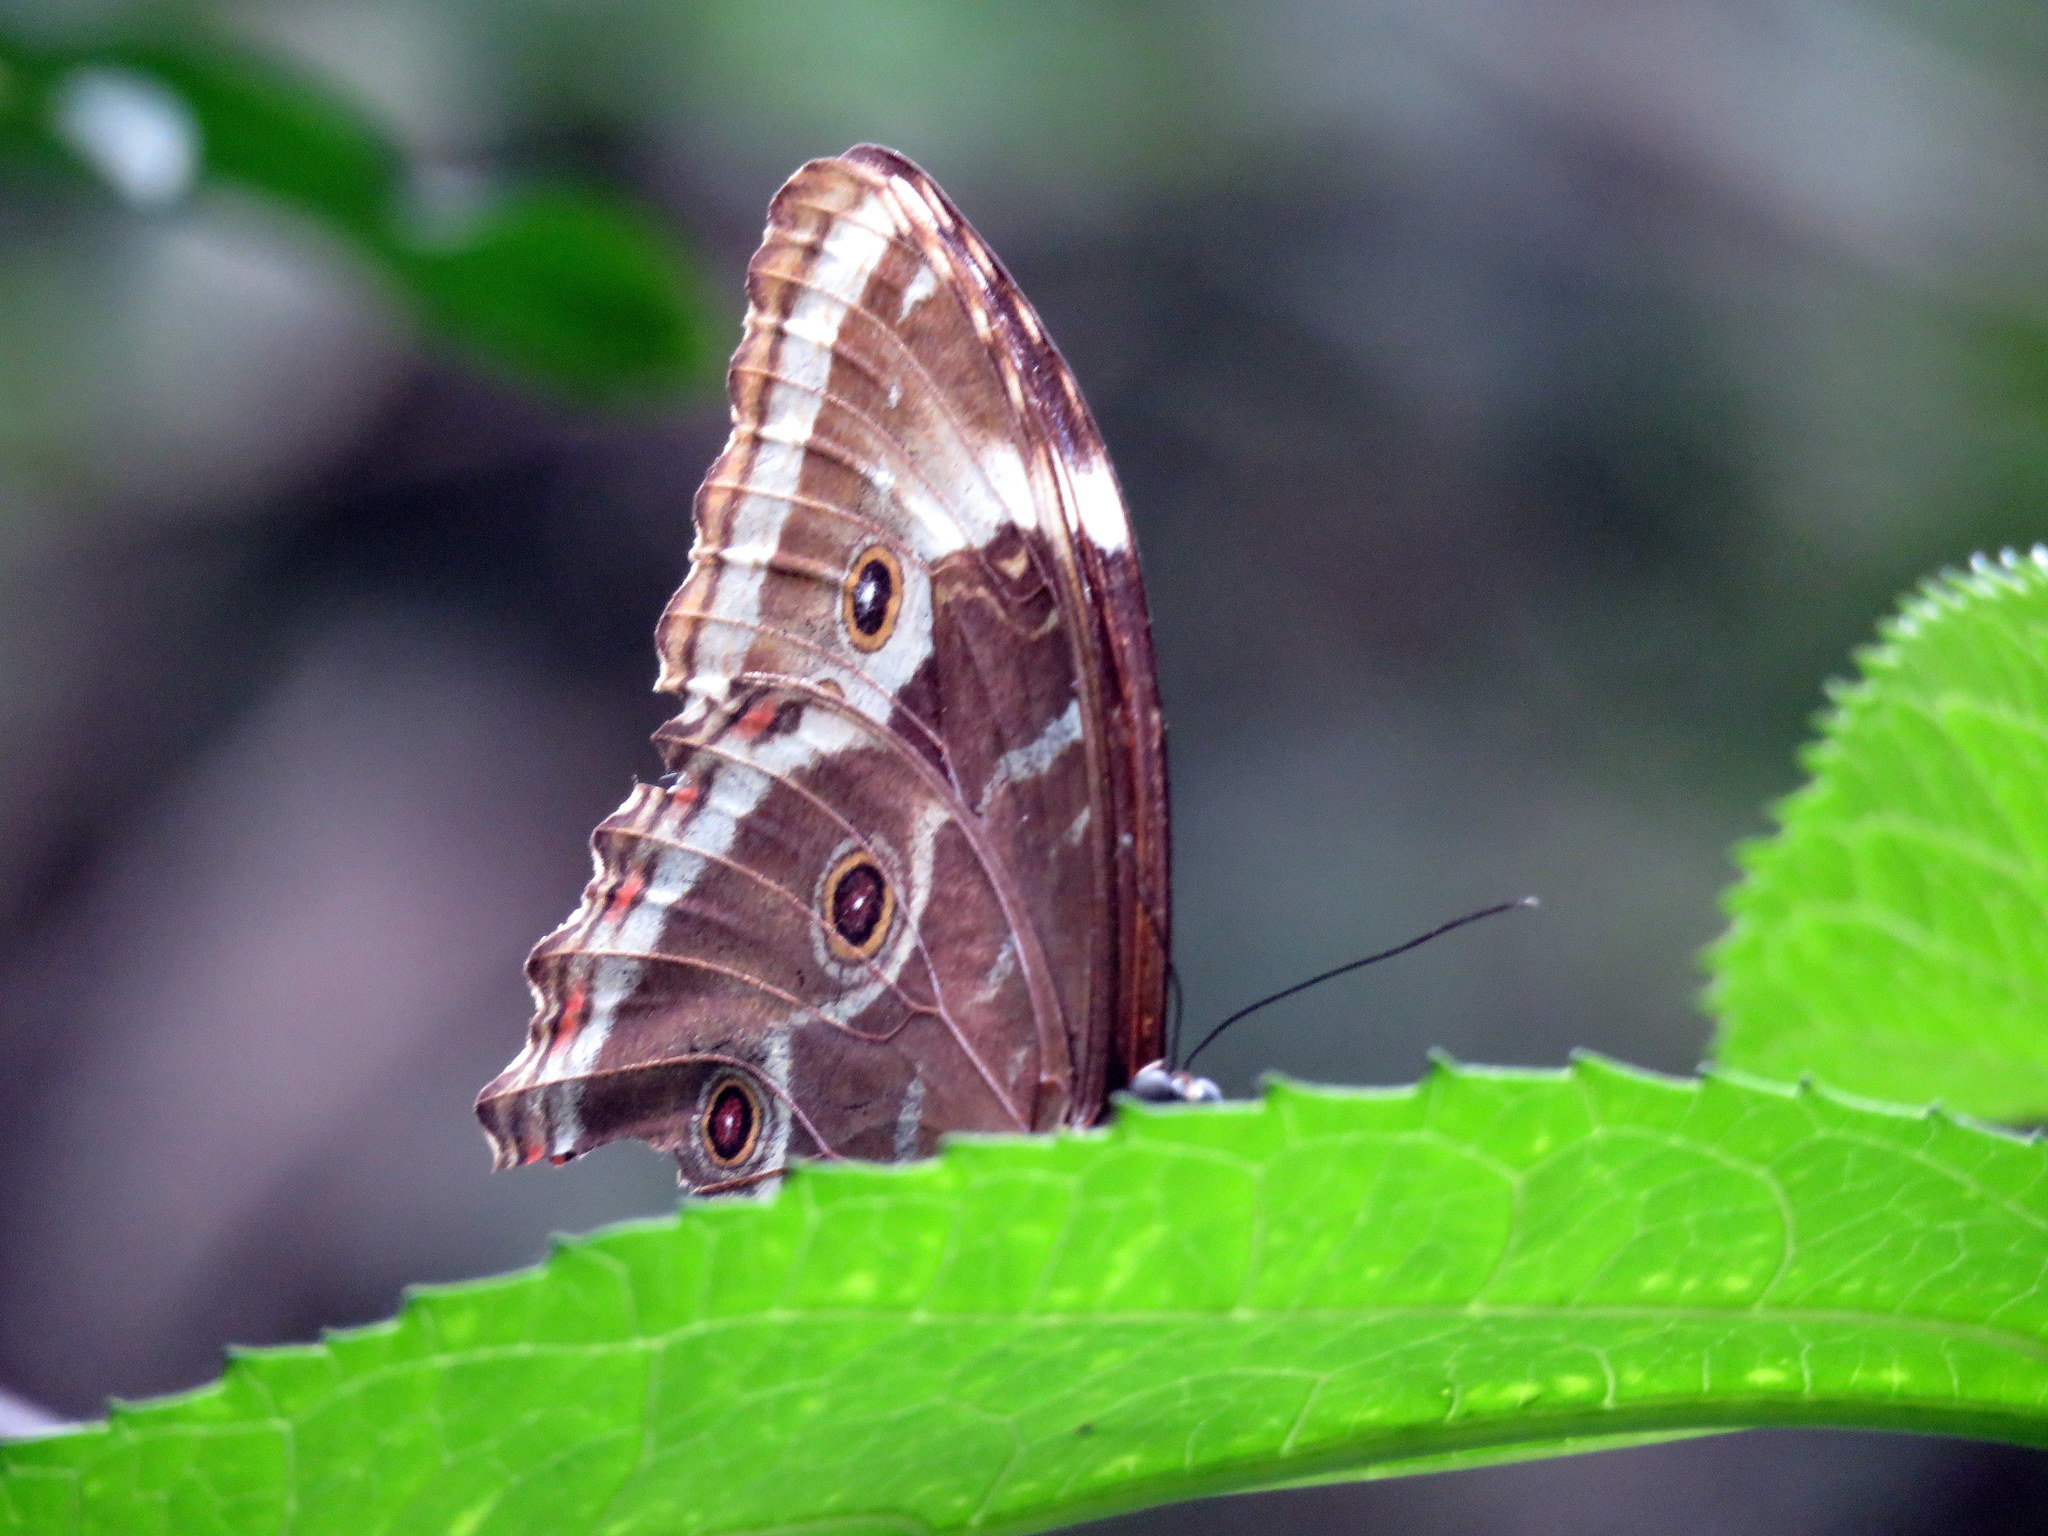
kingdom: Animalia
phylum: Arthropoda
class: Insecta
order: Lepidoptera
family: Nymphalidae
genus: Morpho
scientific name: Morpho helenor
